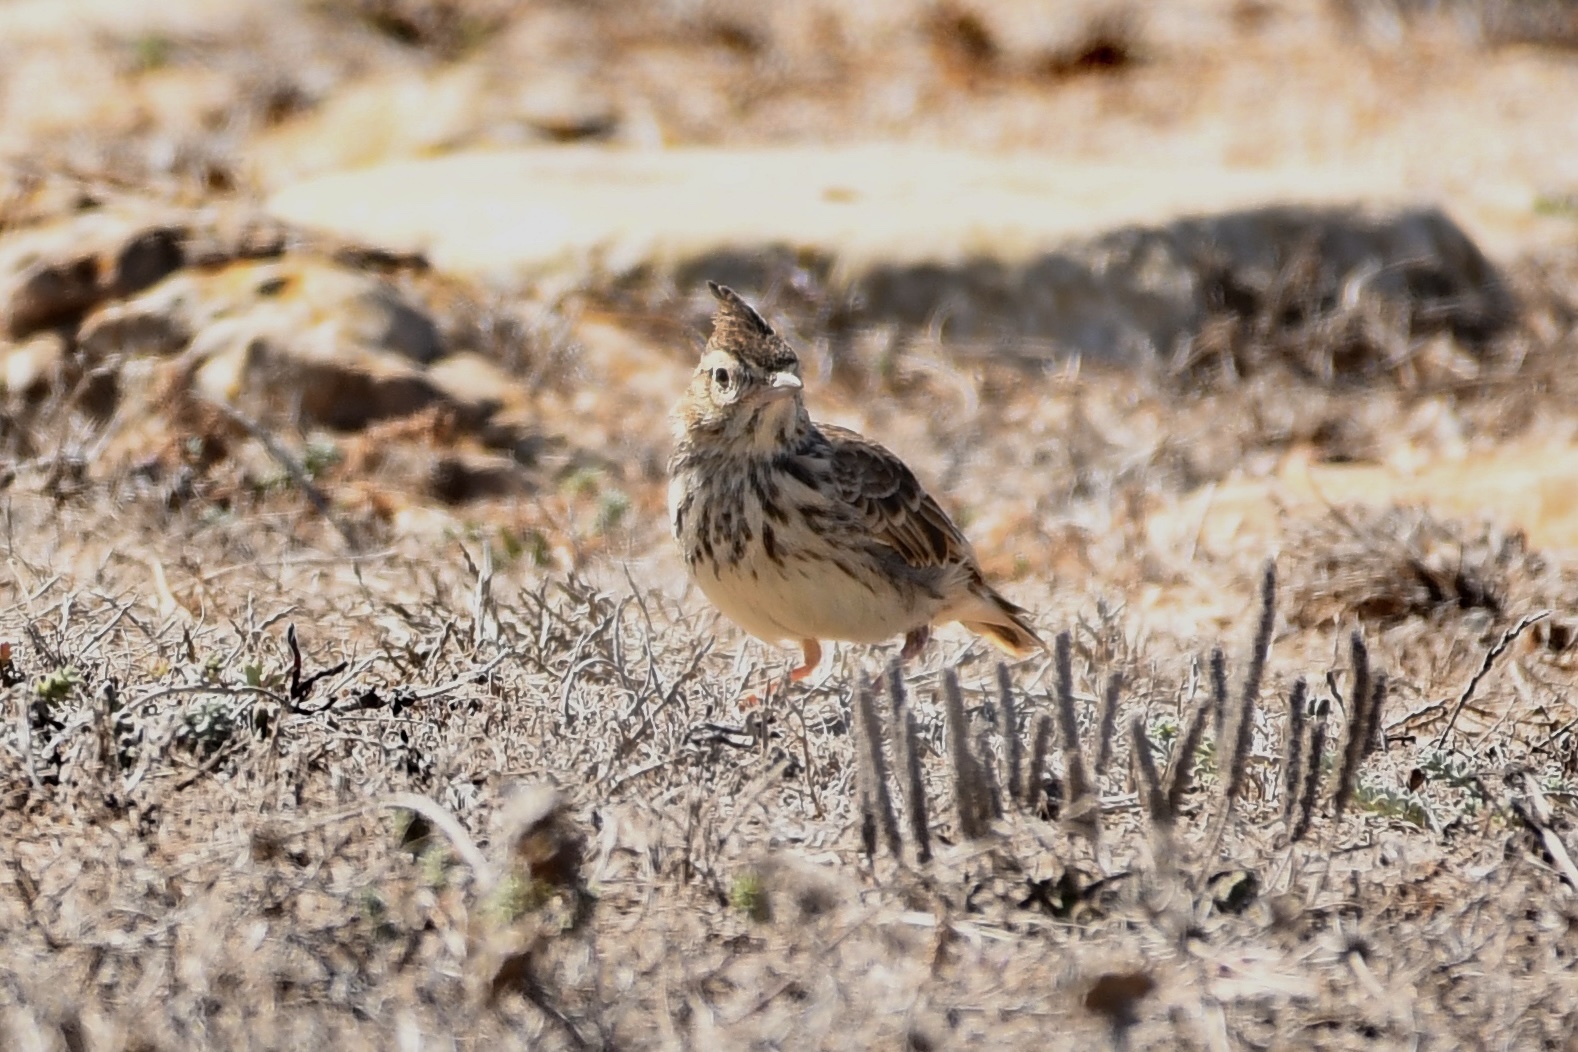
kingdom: Animalia
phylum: Chordata
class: Aves
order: Passeriformes
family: Alaudidae
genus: Galerida
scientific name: Galerida theklae
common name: Thekla lark
